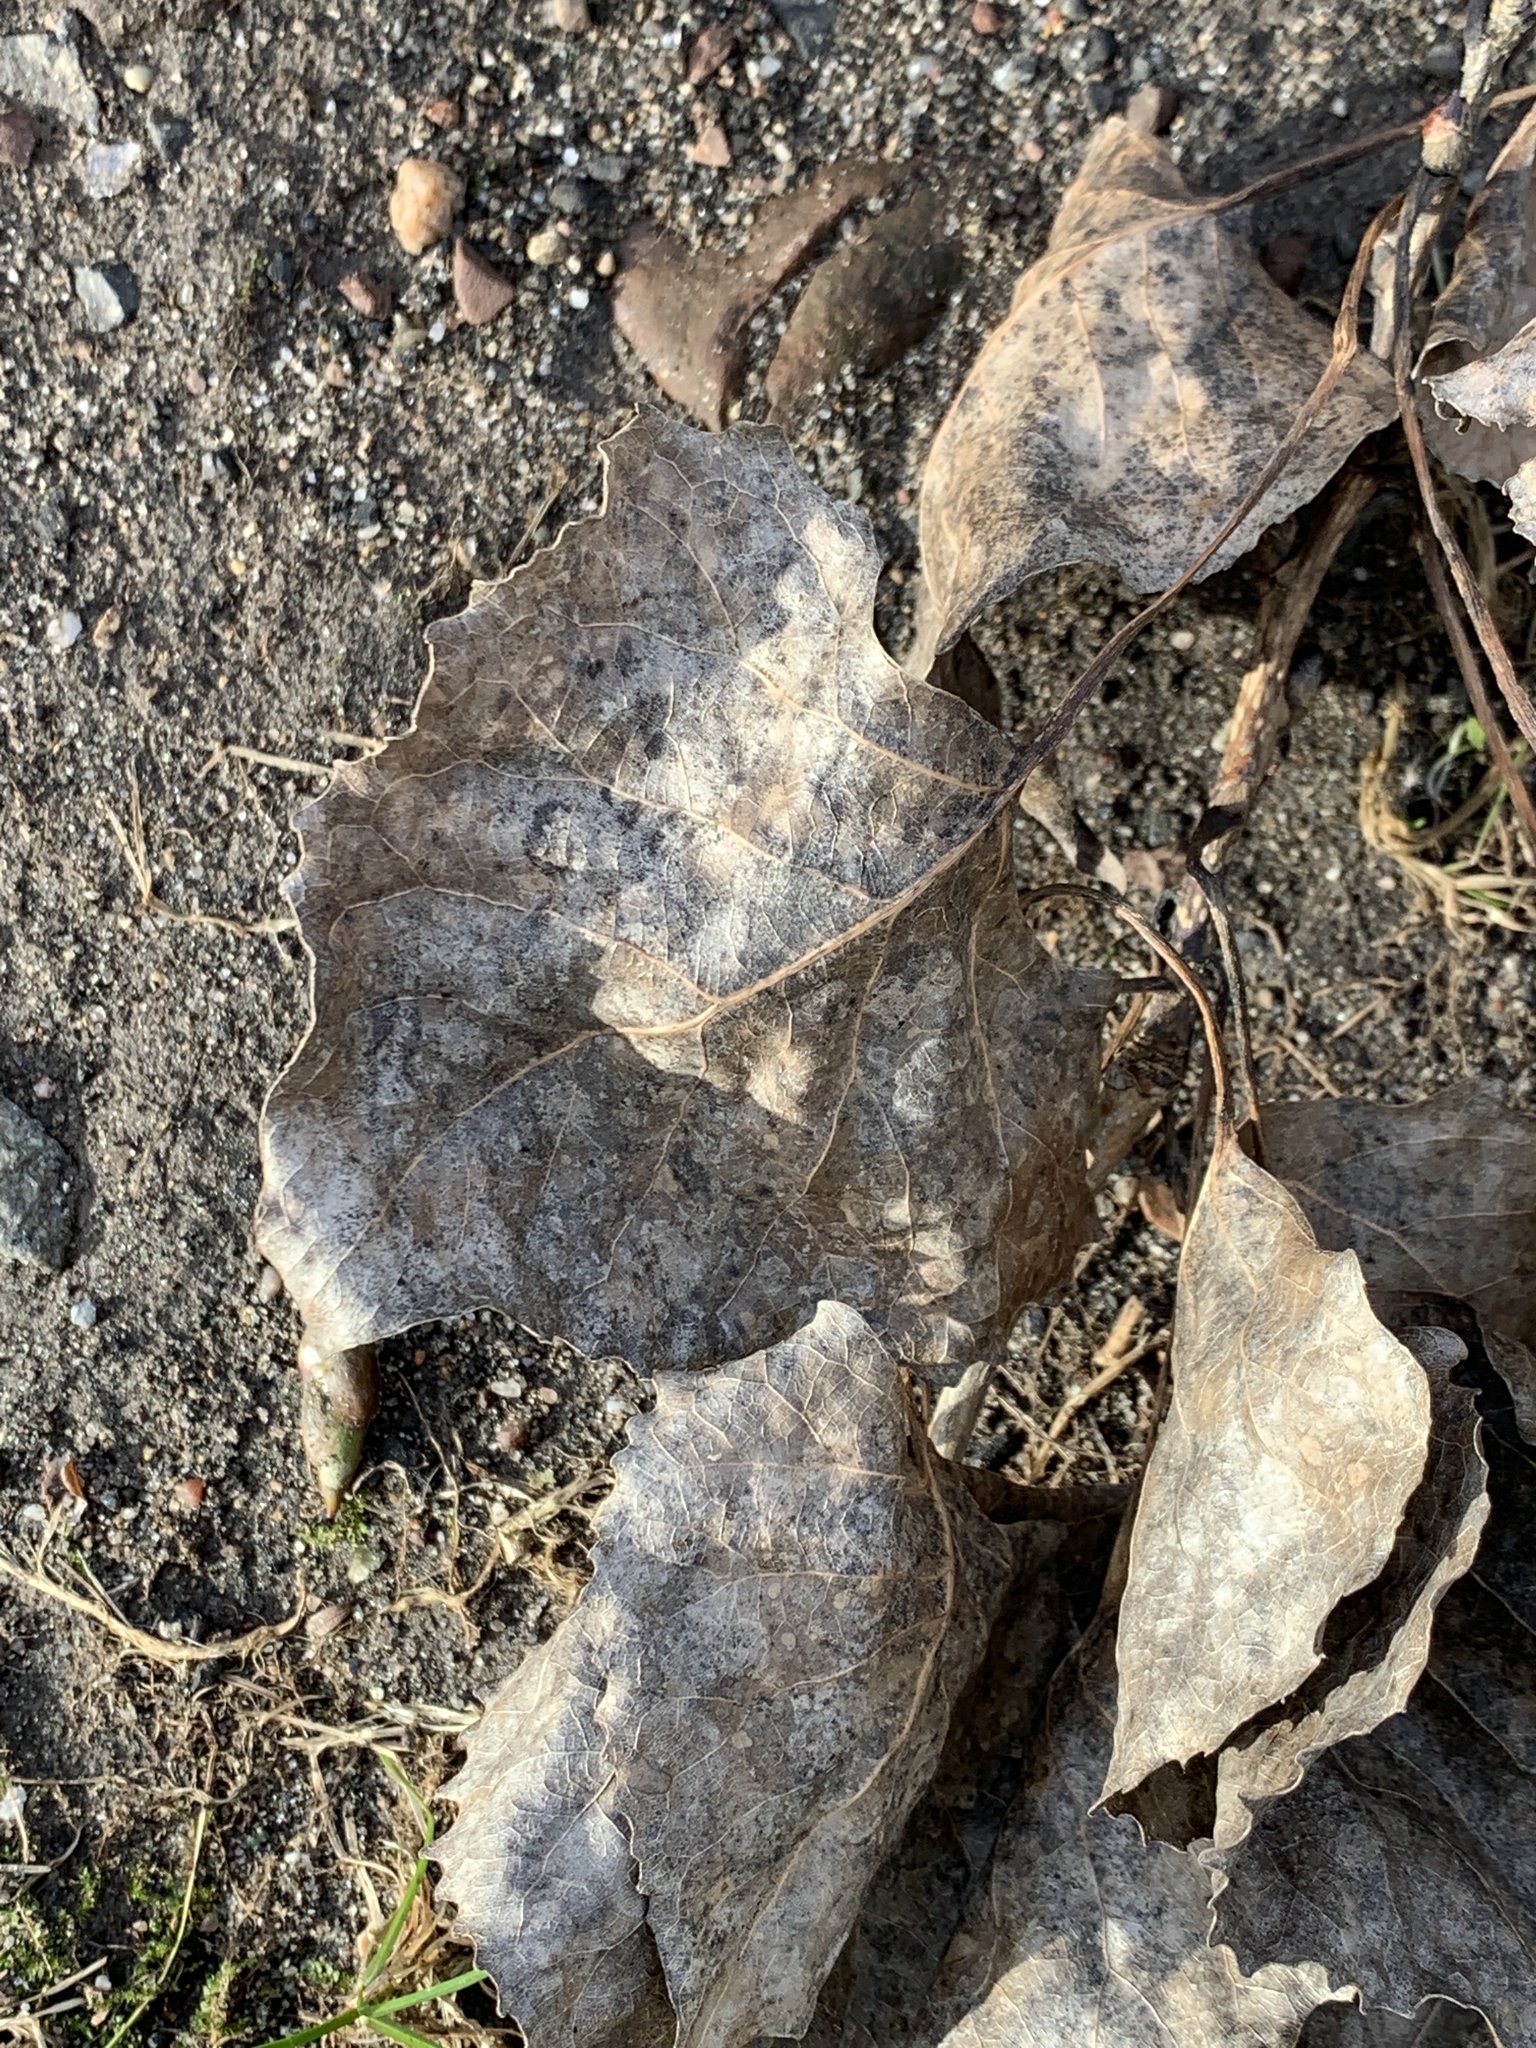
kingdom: Plantae
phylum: Tracheophyta
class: Magnoliopsida
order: Malpighiales
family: Salicaceae
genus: Populus
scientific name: Populus deltoides
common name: Eastern cottonwood
